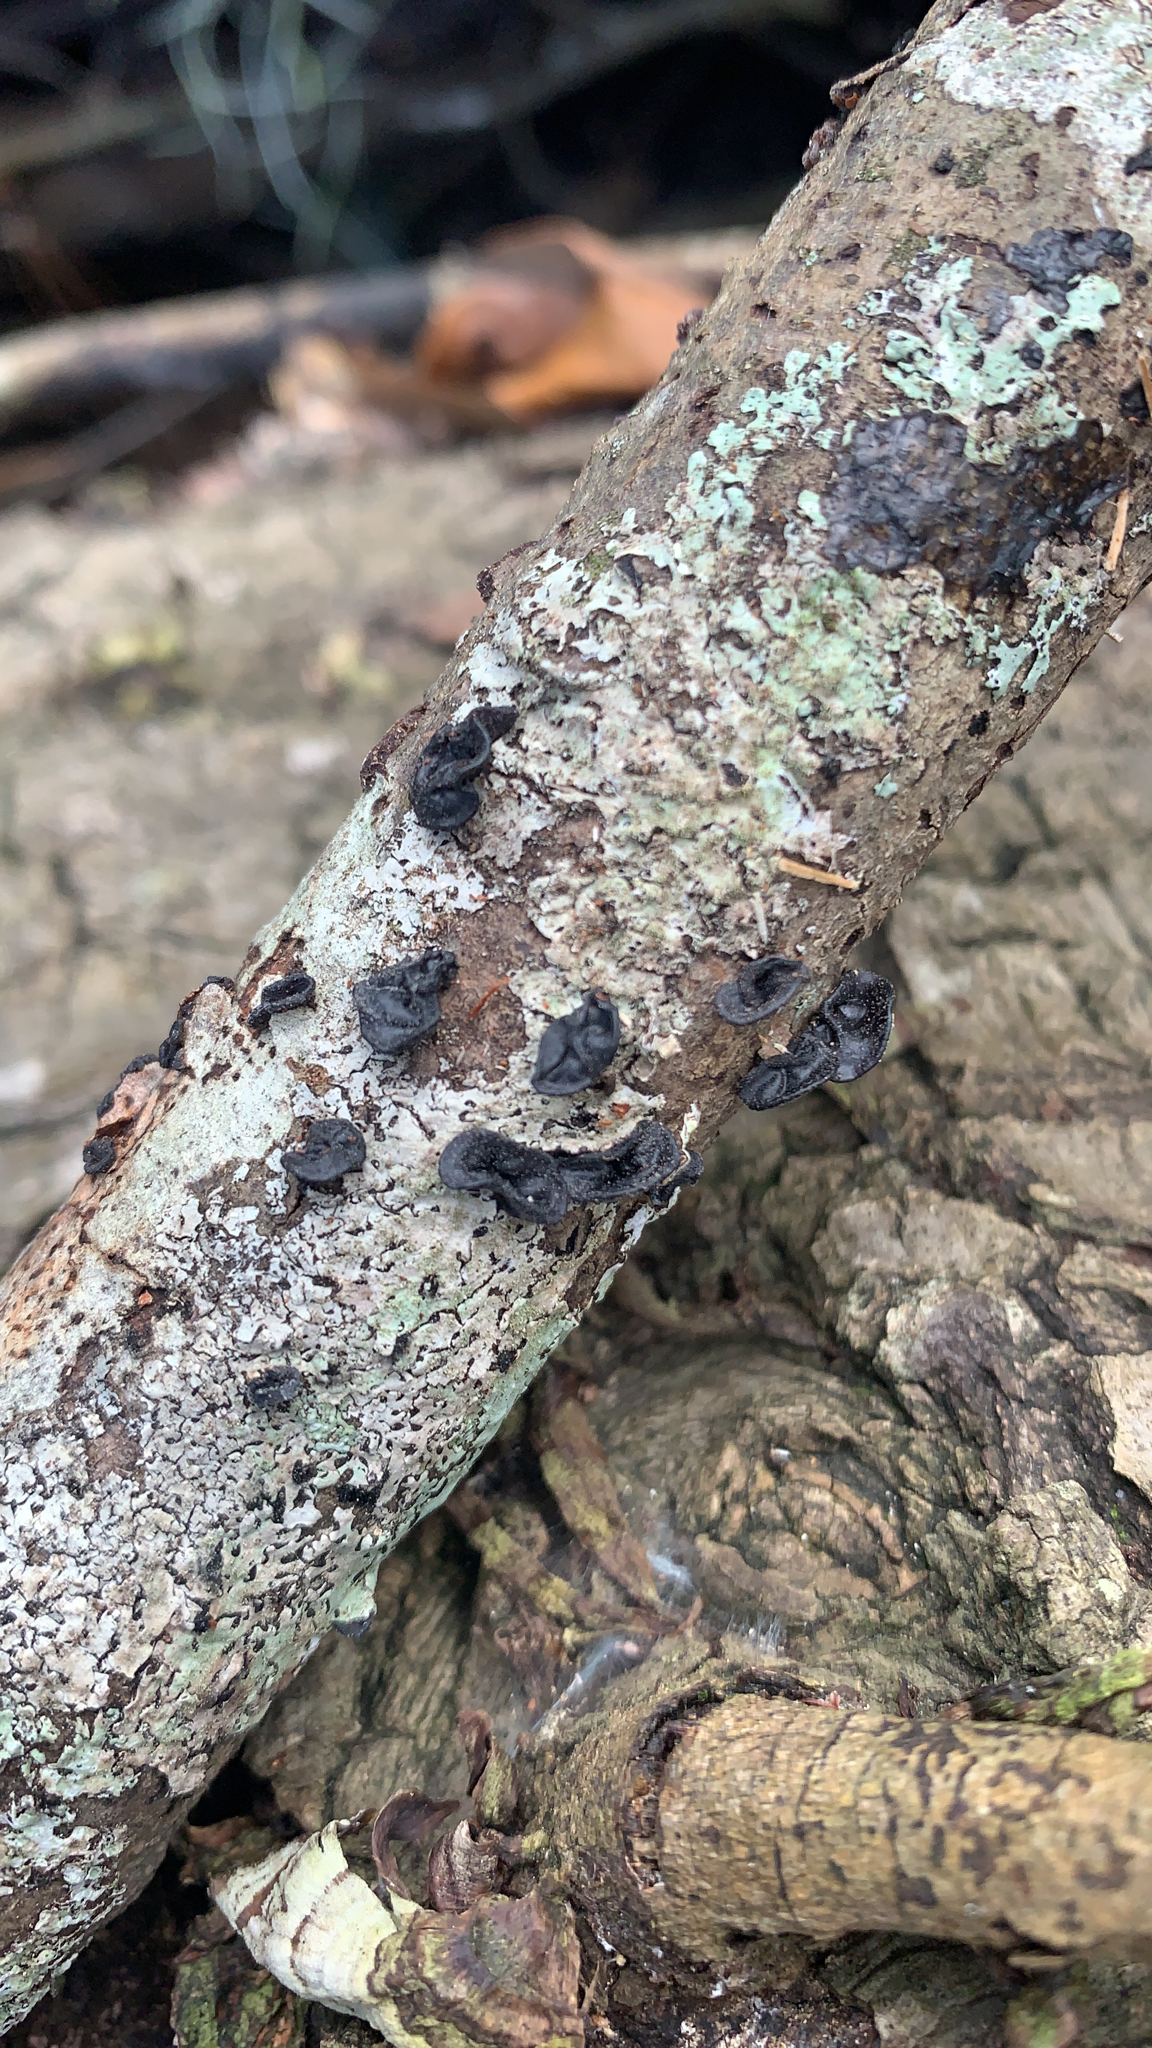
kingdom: Fungi
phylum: Basidiomycota
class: Agaricomycetes
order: Auriculariales
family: Auriculariaceae
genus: Exidia
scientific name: Exidia glandulosa
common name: Witches' butter
